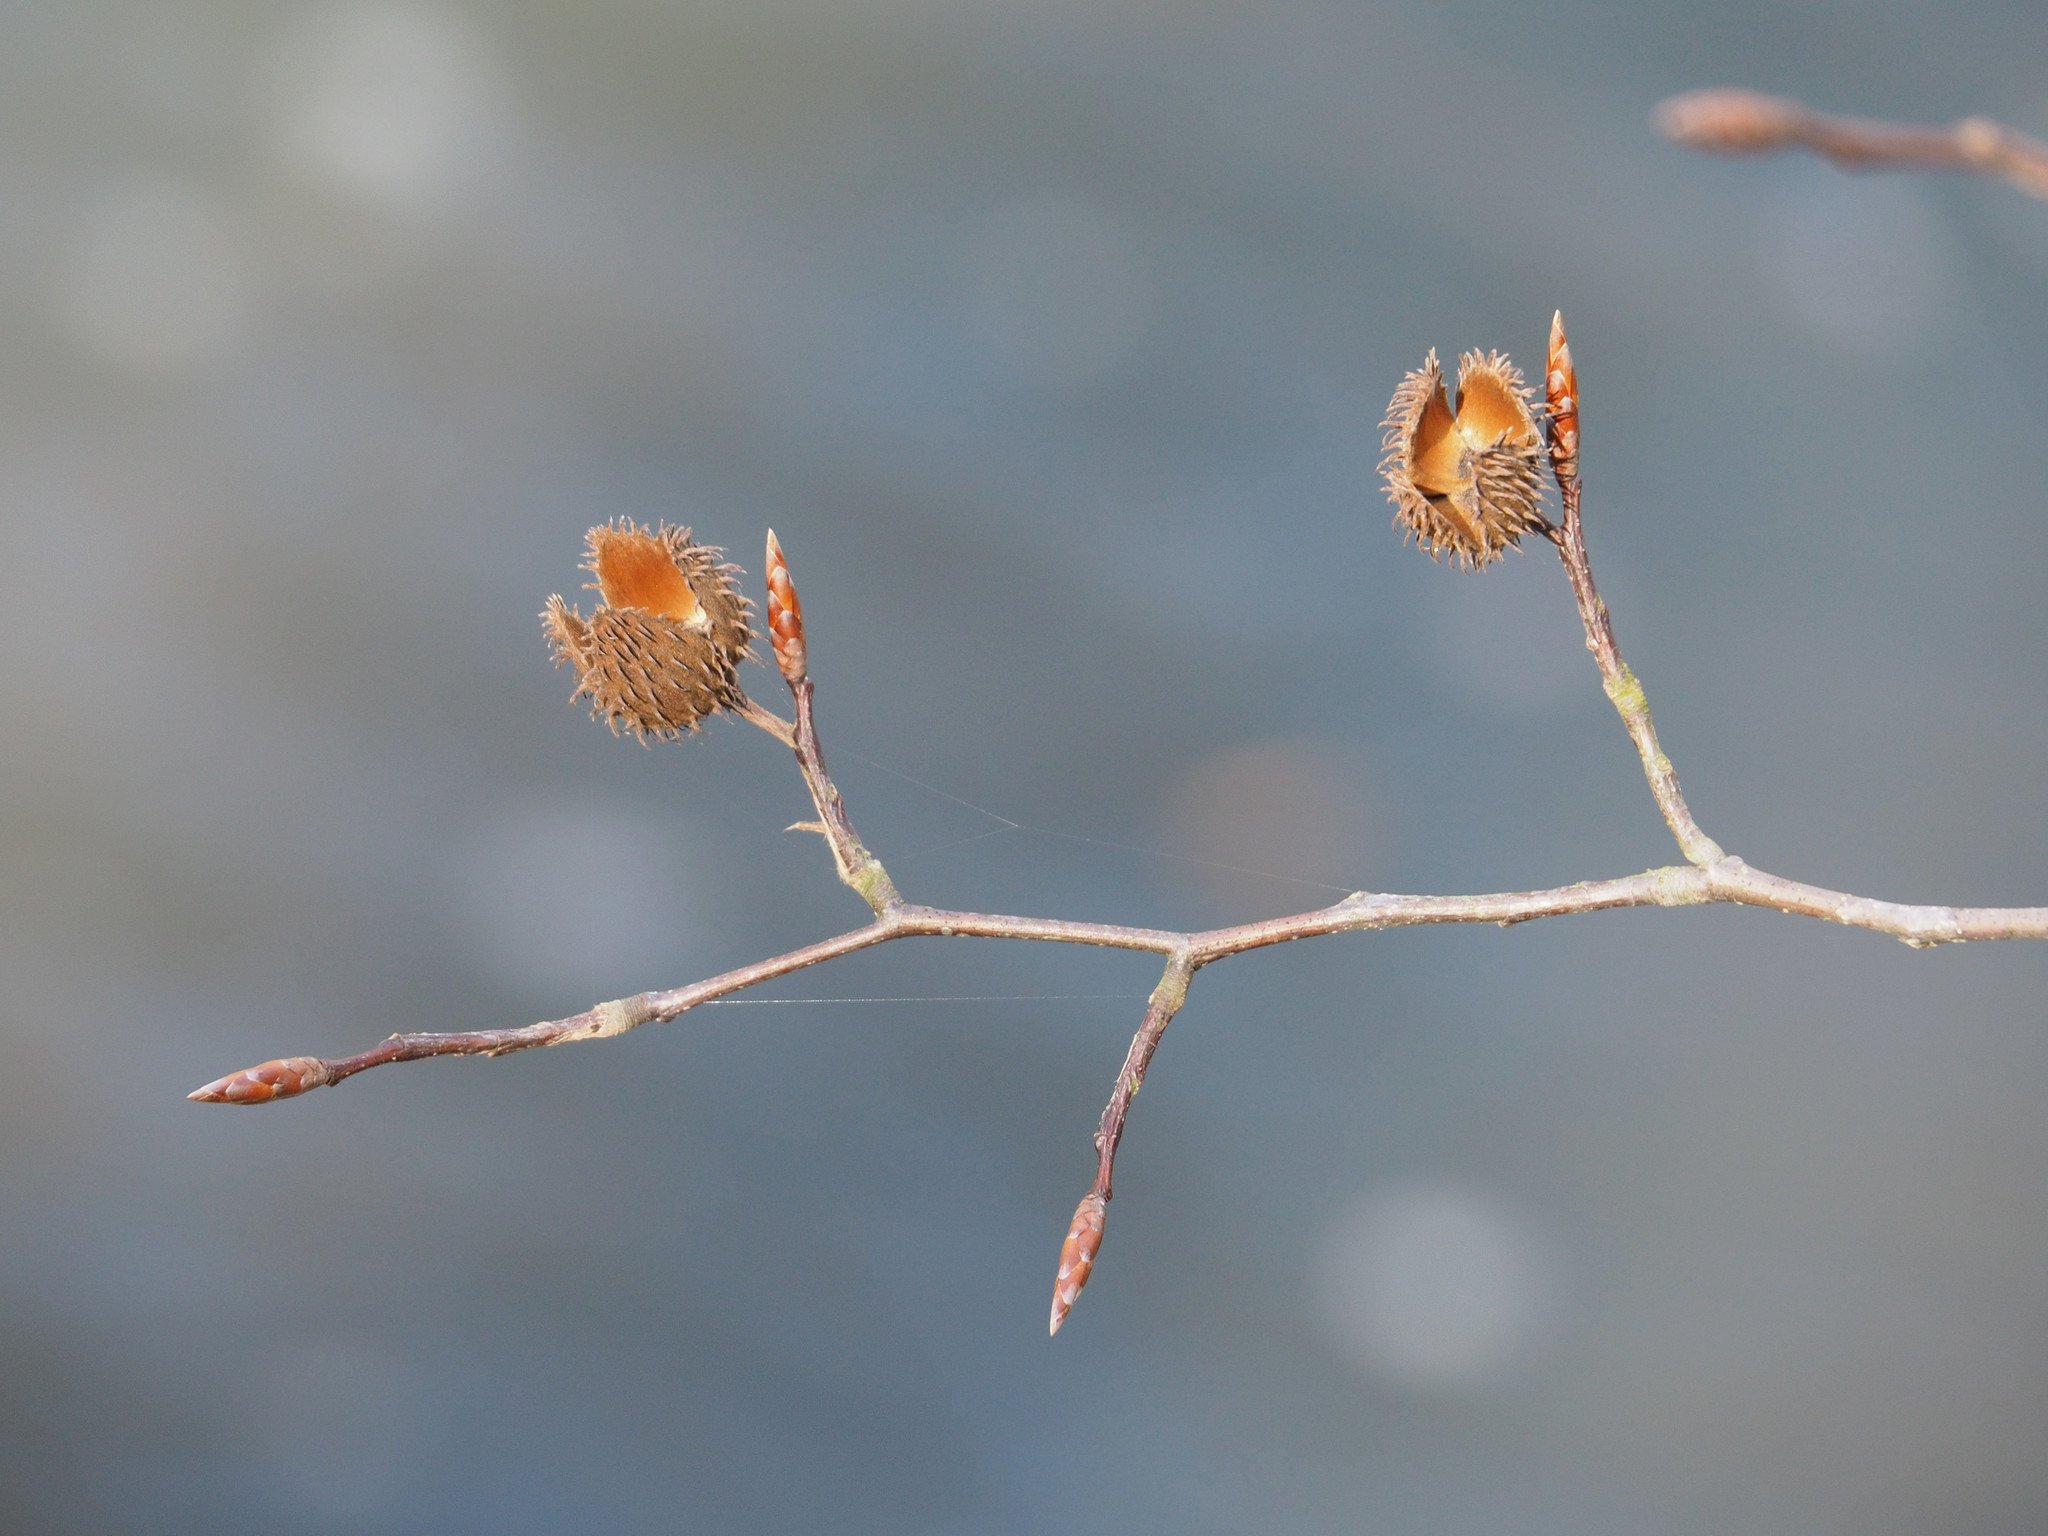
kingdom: Plantae
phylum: Tracheophyta
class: Magnoliopsida
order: Fagales
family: Fagaceae
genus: Fagus
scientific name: Fagus grandifolia
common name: American beech
